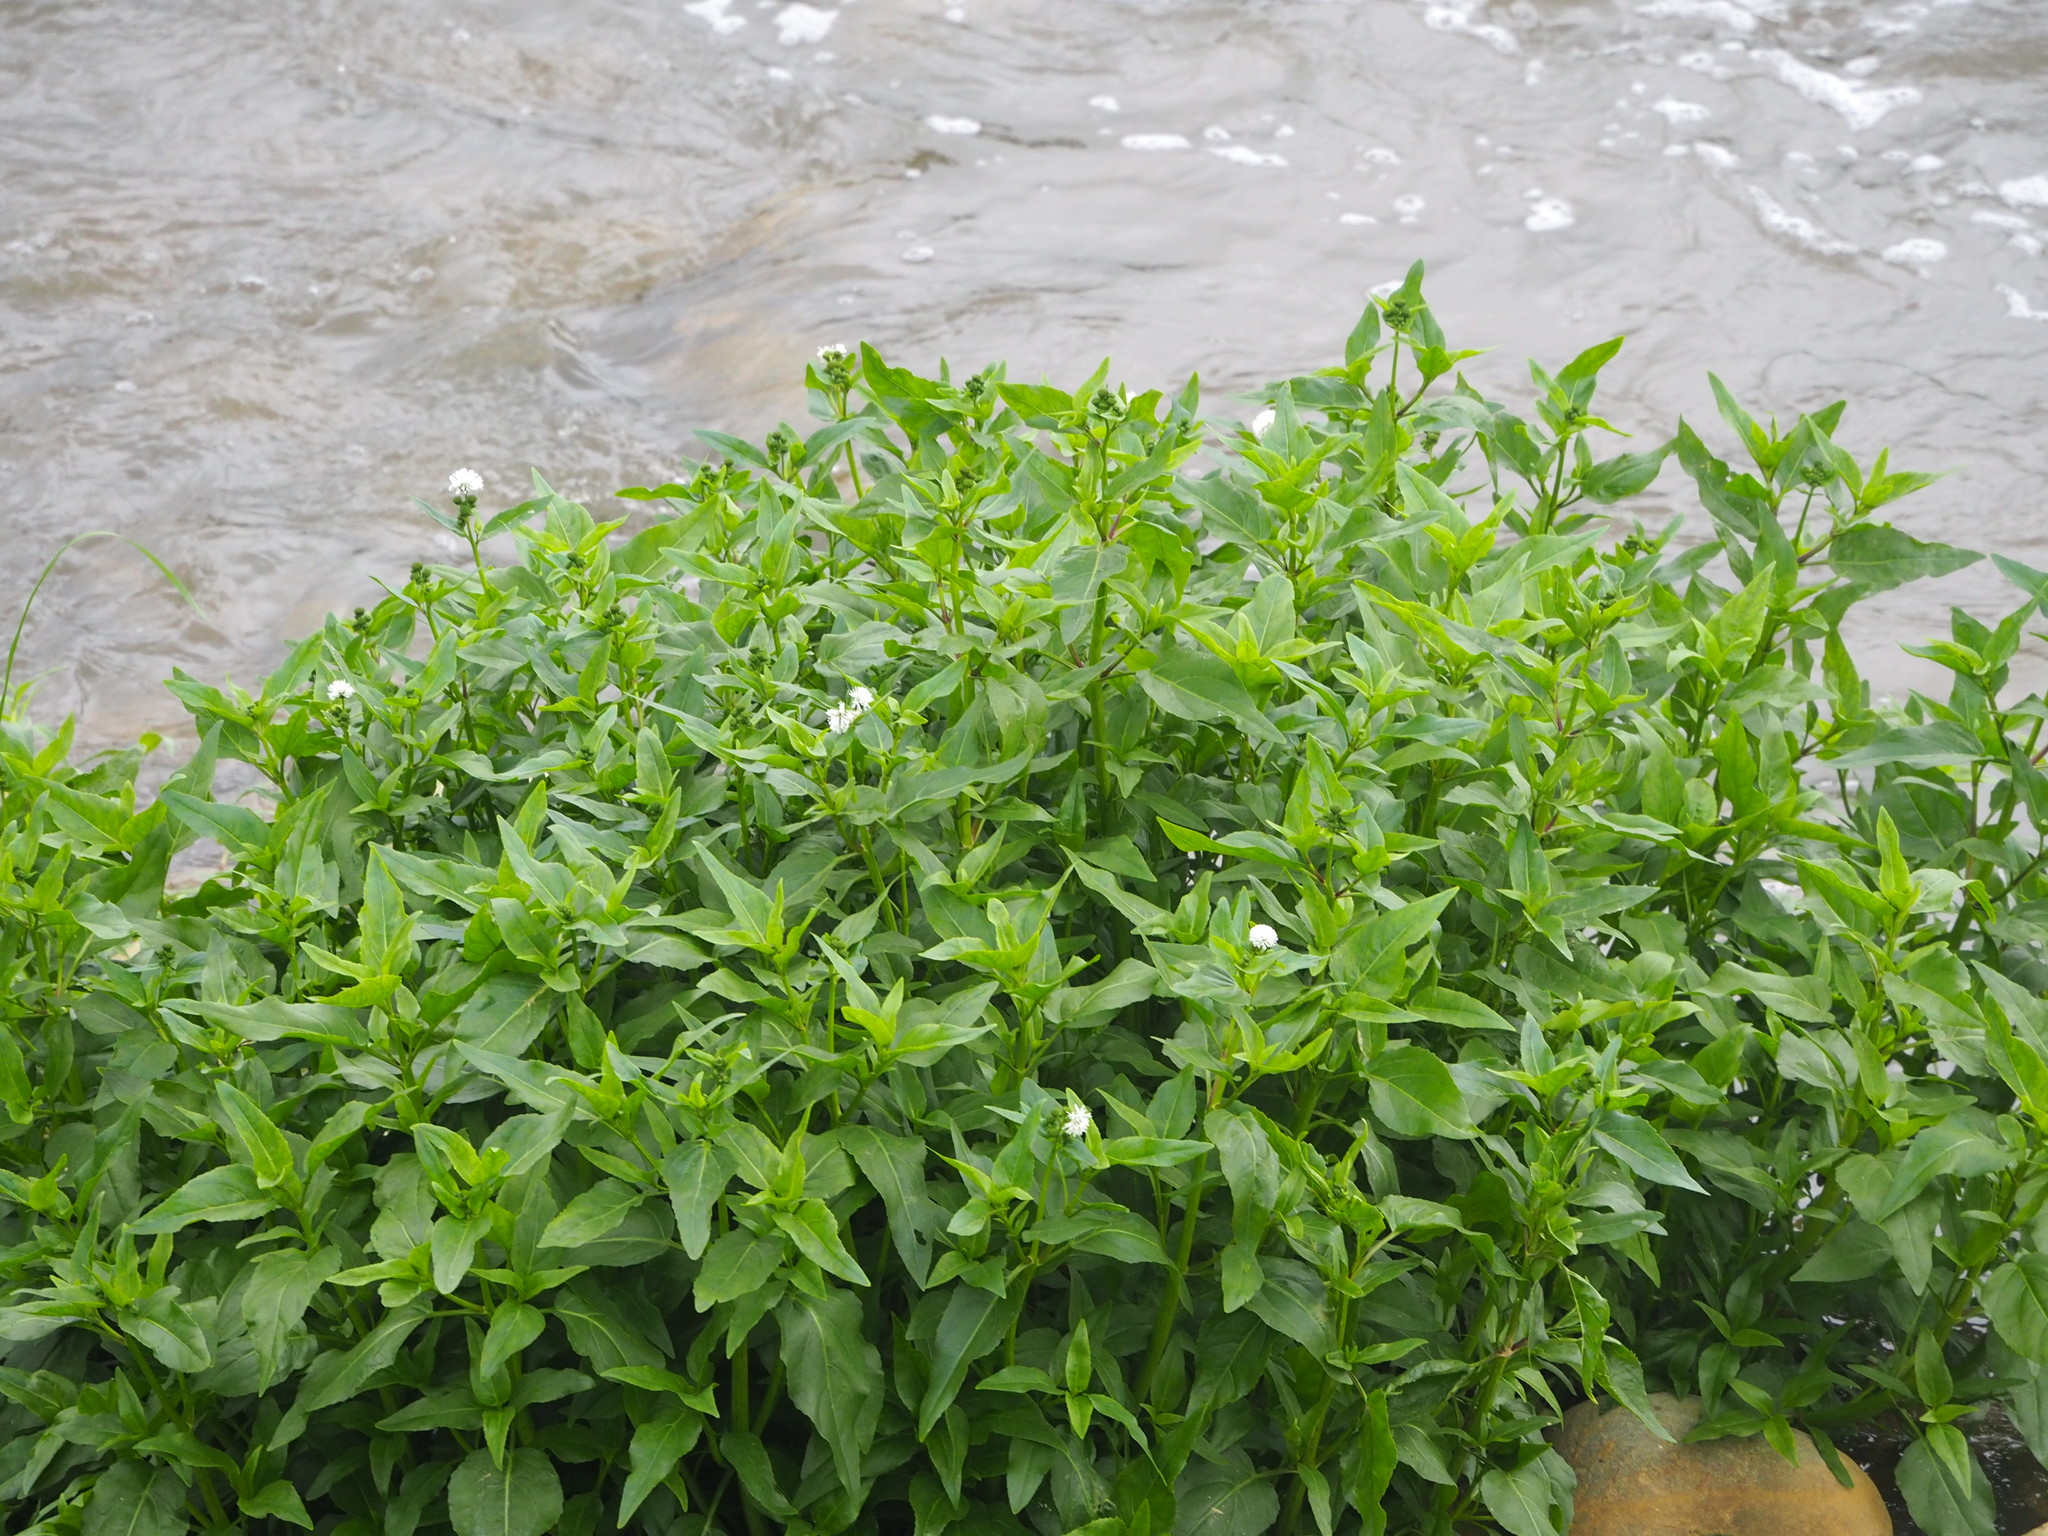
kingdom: Plantae
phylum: Tracheophyta
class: Magnoliopsida
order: Asterales
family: Asteraceae
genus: Gymnocoronis
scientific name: Gymnocoronis spilanthoides
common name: Senegal teaplant
